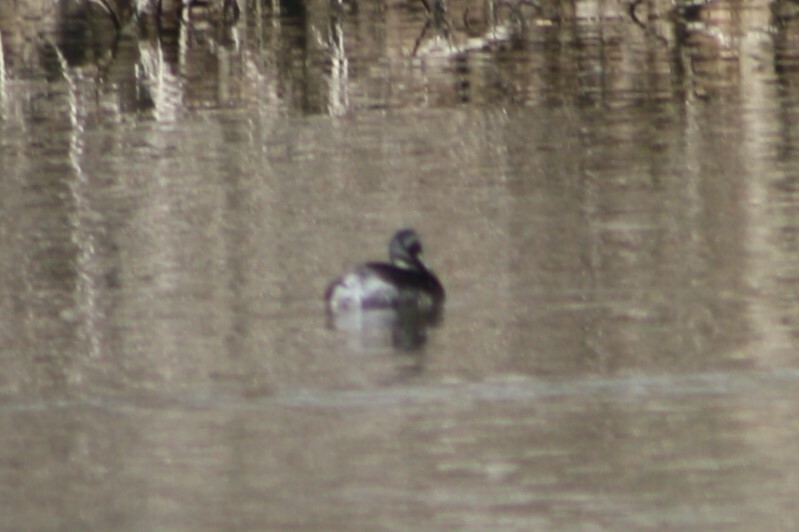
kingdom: Animalia
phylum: Chordata
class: Aves
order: Podicipediformes
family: Podicipedidae
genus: Tachybaptus
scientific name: Tachybaptus dominicus
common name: Least grebe
